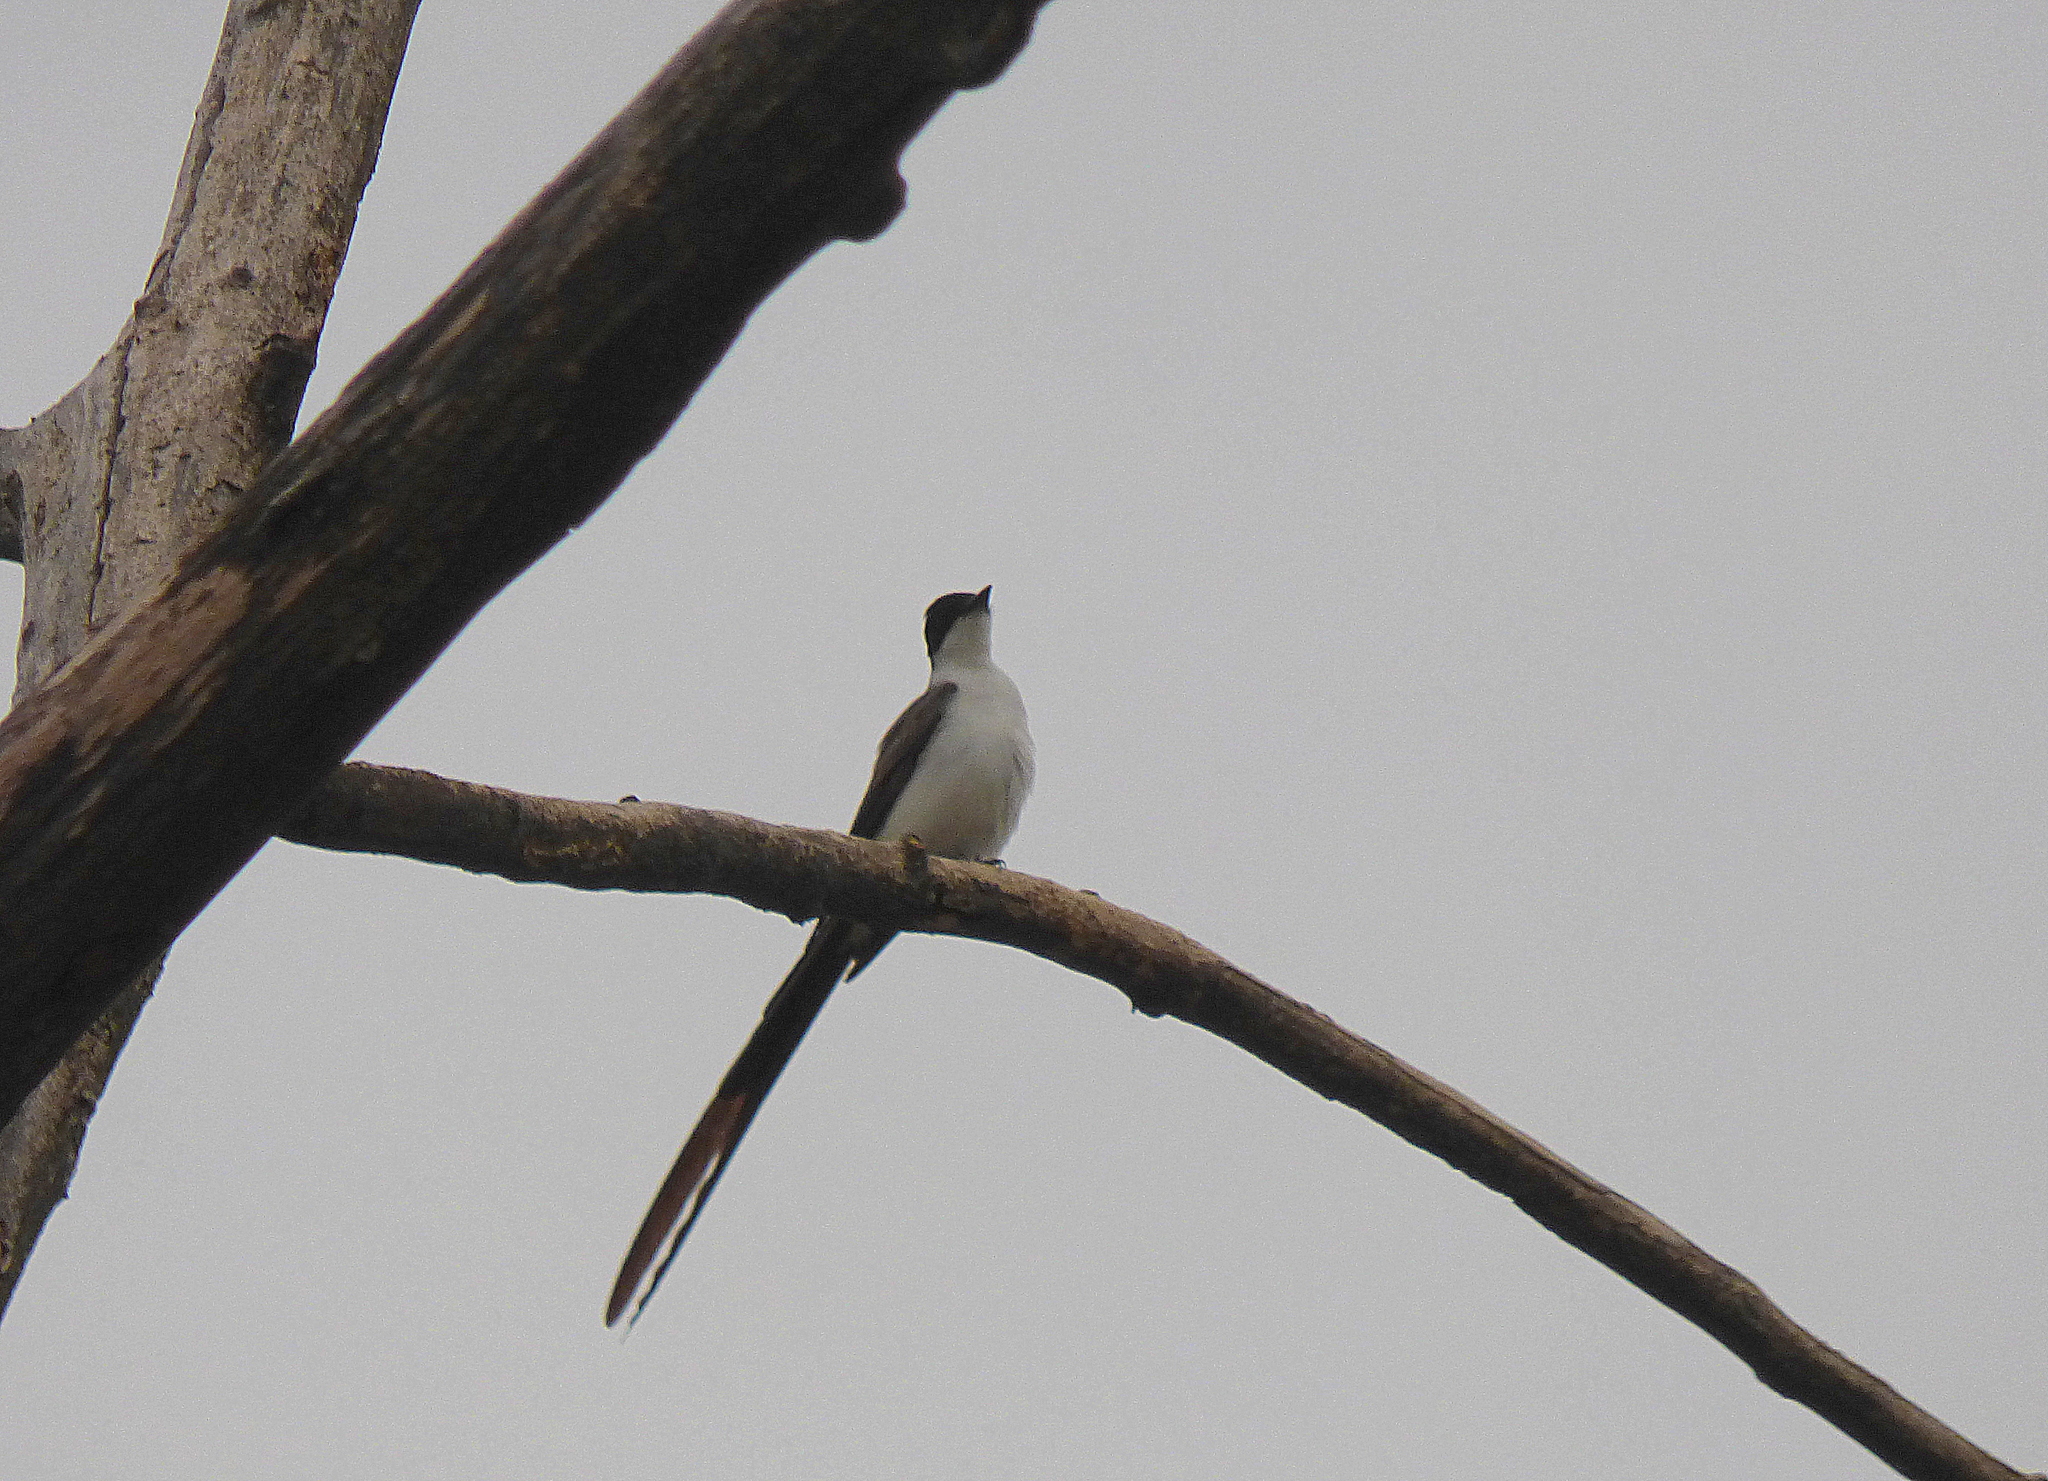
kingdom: Animalia
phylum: Chordata
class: Aves
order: Passeriformes
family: Tyrannidae
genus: Tyrannus
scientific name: Tyrannus savana
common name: Fork-tailed flycatcher
